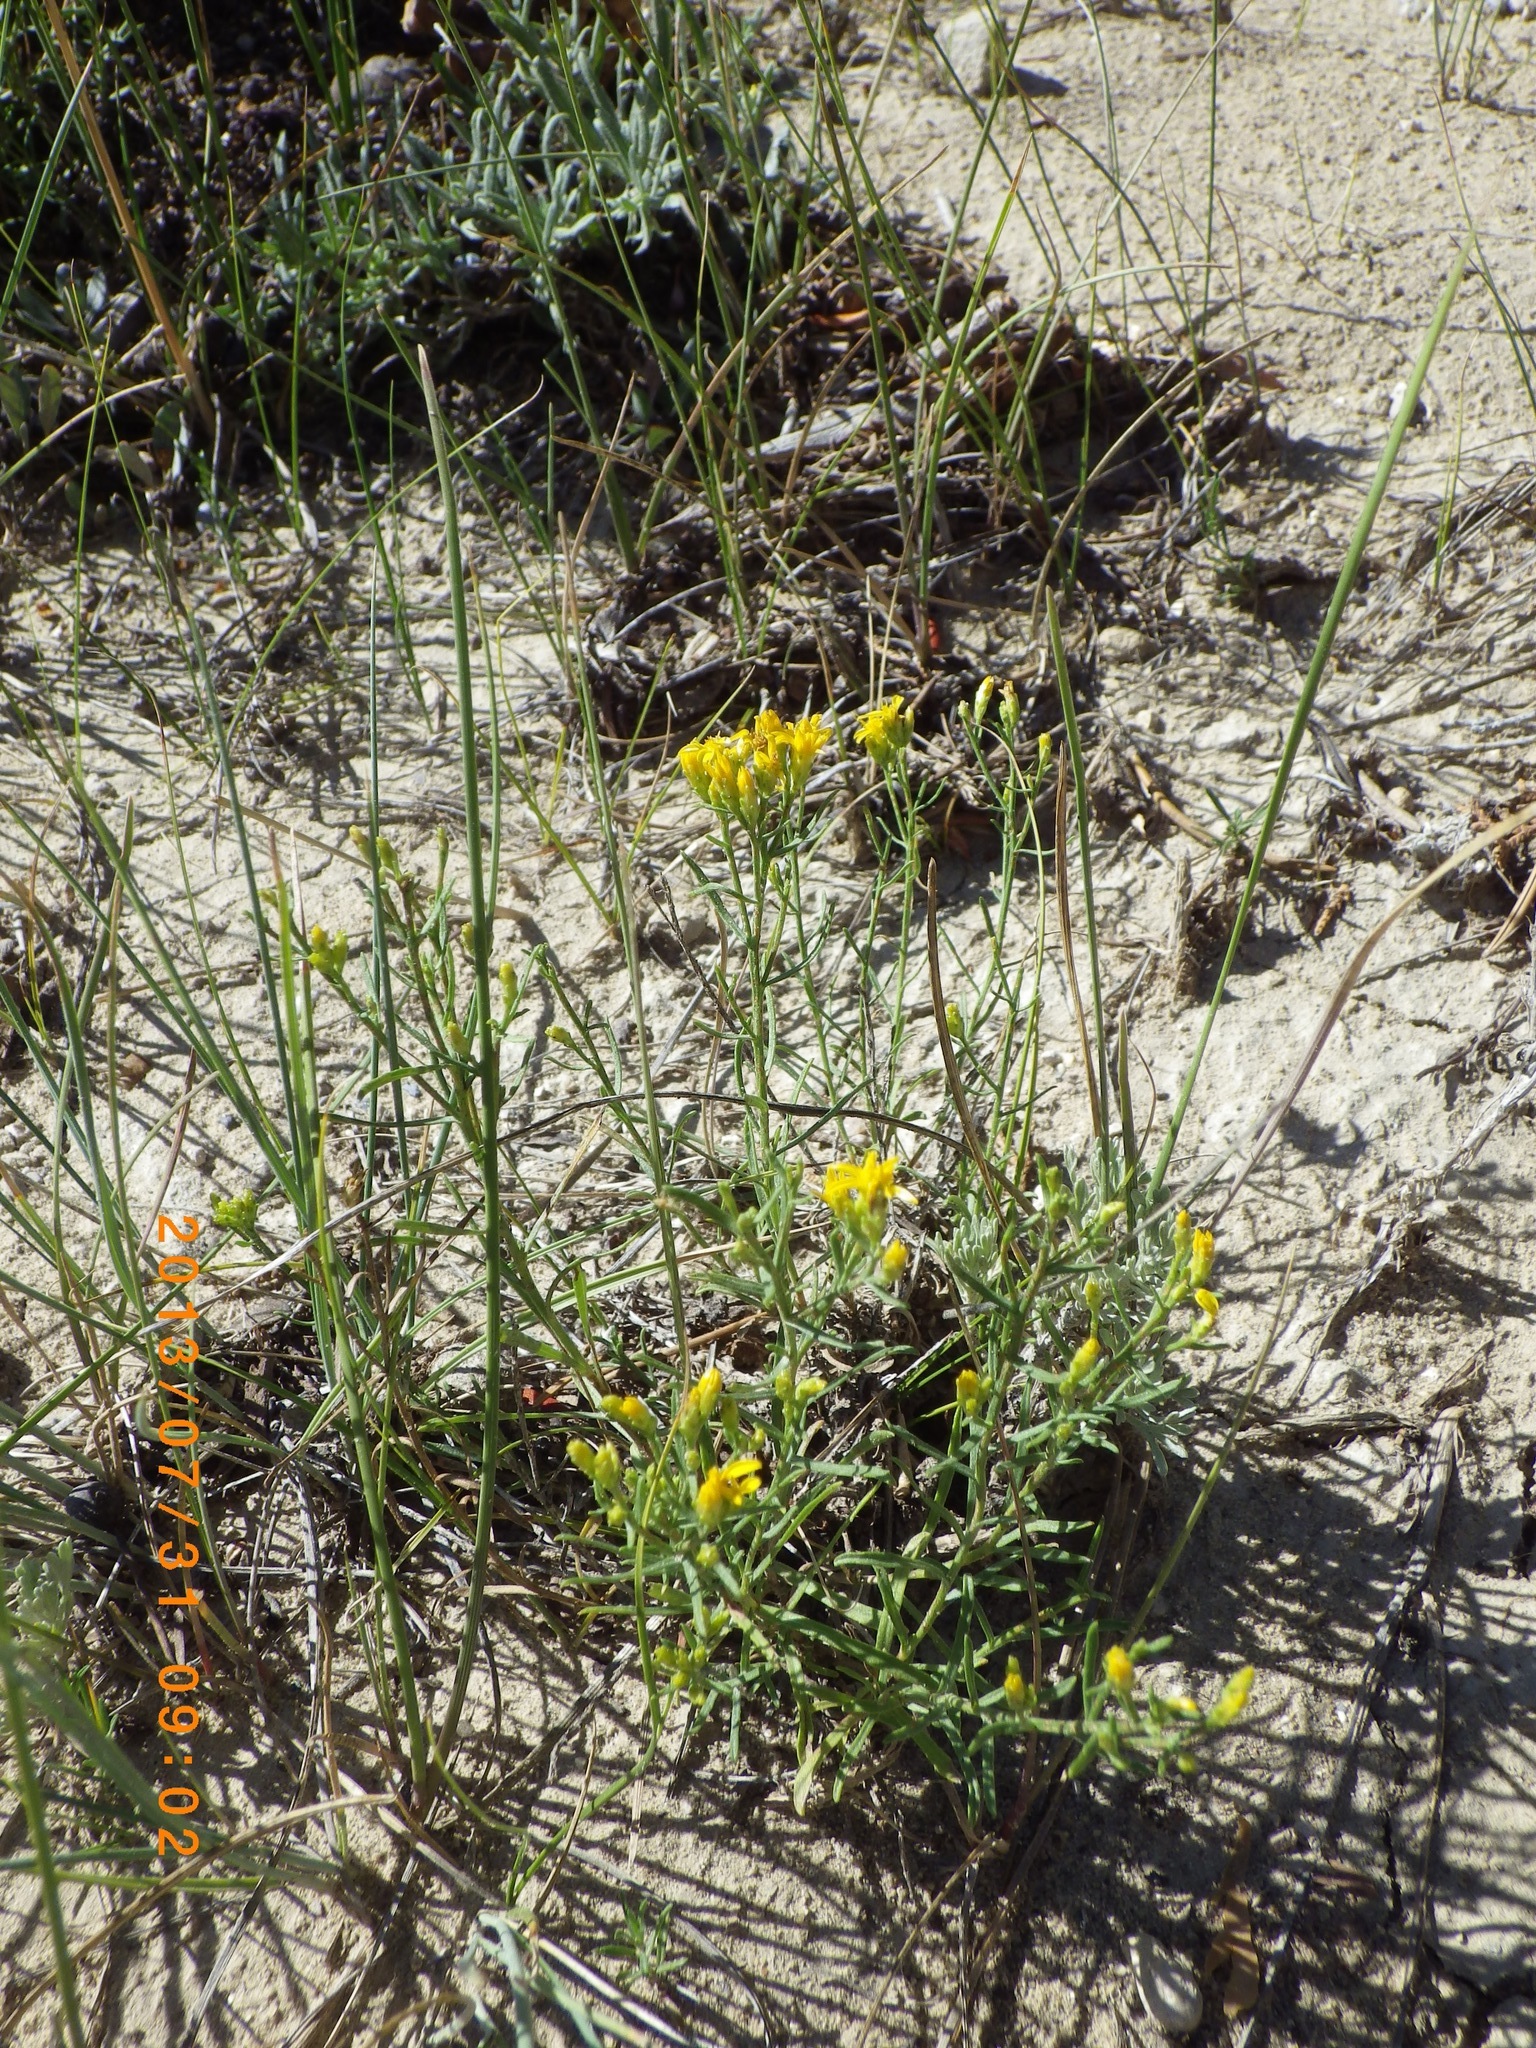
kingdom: Plantae
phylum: Tracheophyta
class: Magnoliopsida
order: Asterales
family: Asteraceae
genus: Gutierrezia
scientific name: Gutierrezia sarothrae
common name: Broom snakeweed
